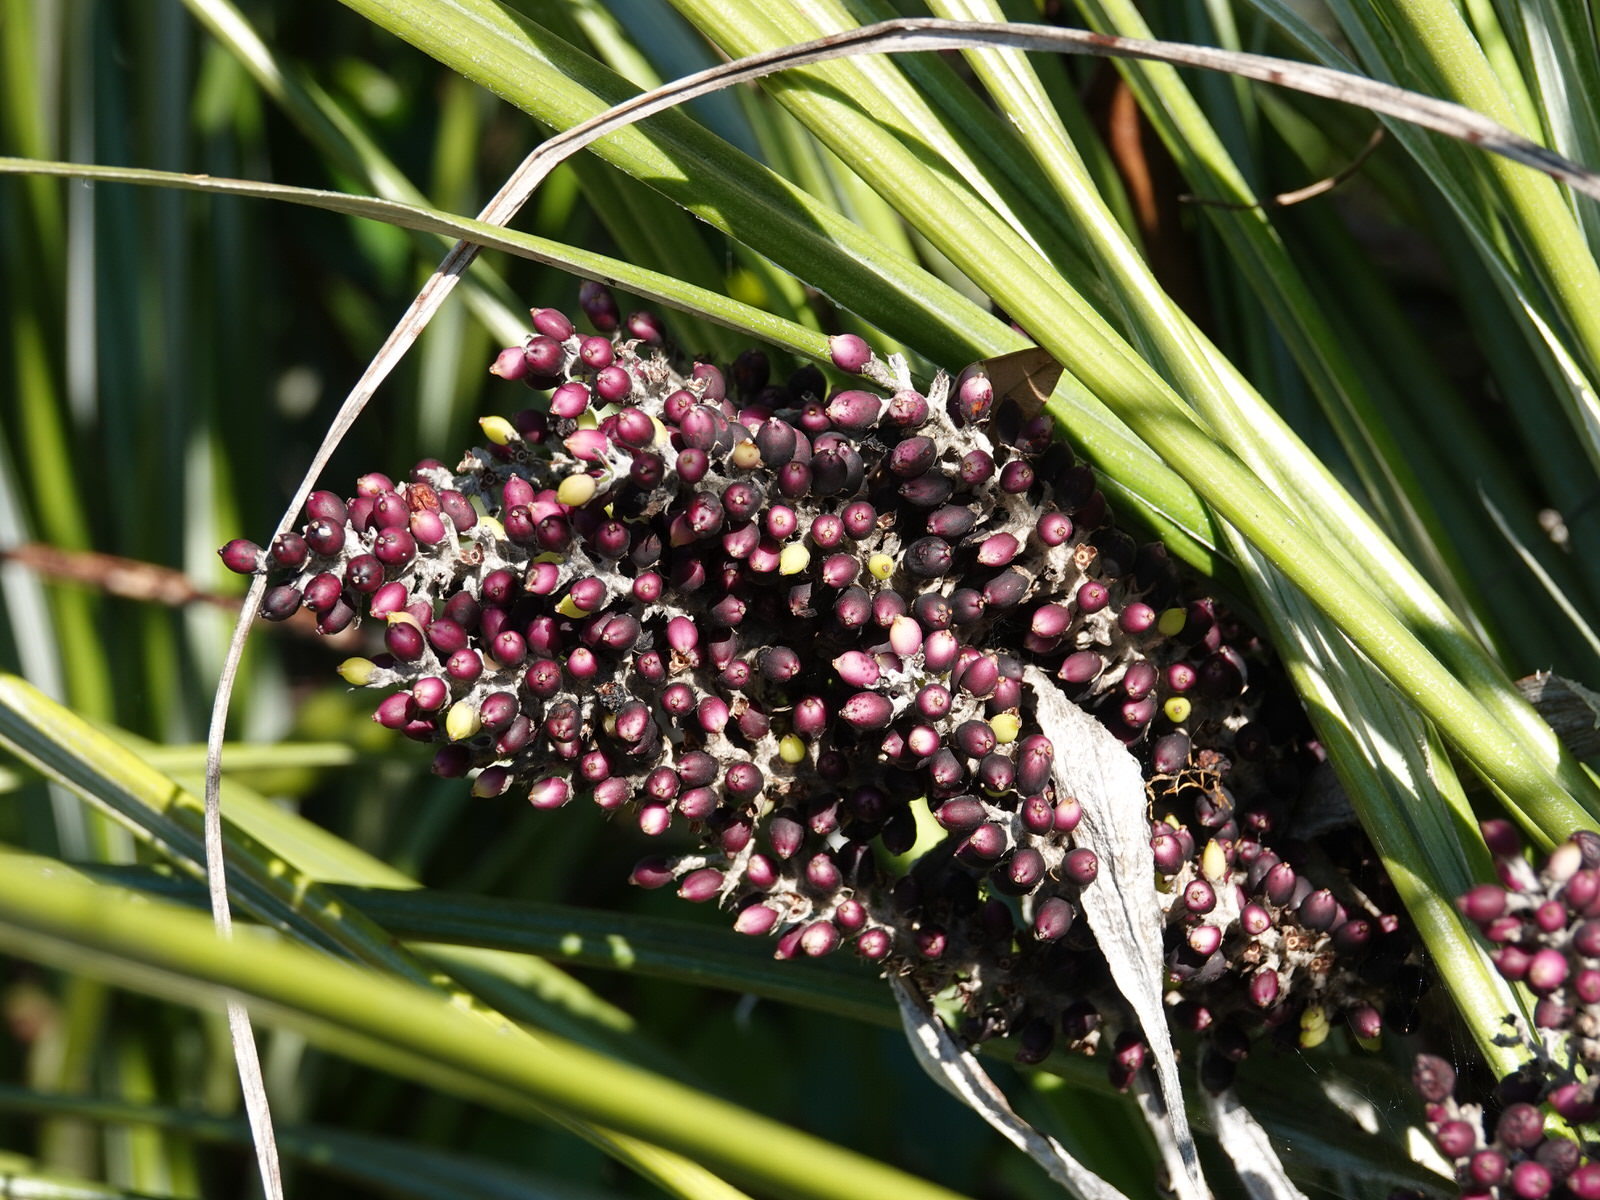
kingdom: Plantae
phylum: Tracheophyta
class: Liliopsida
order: Asparagales
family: Asteliaceae
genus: Astelia
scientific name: Astelia banksii
